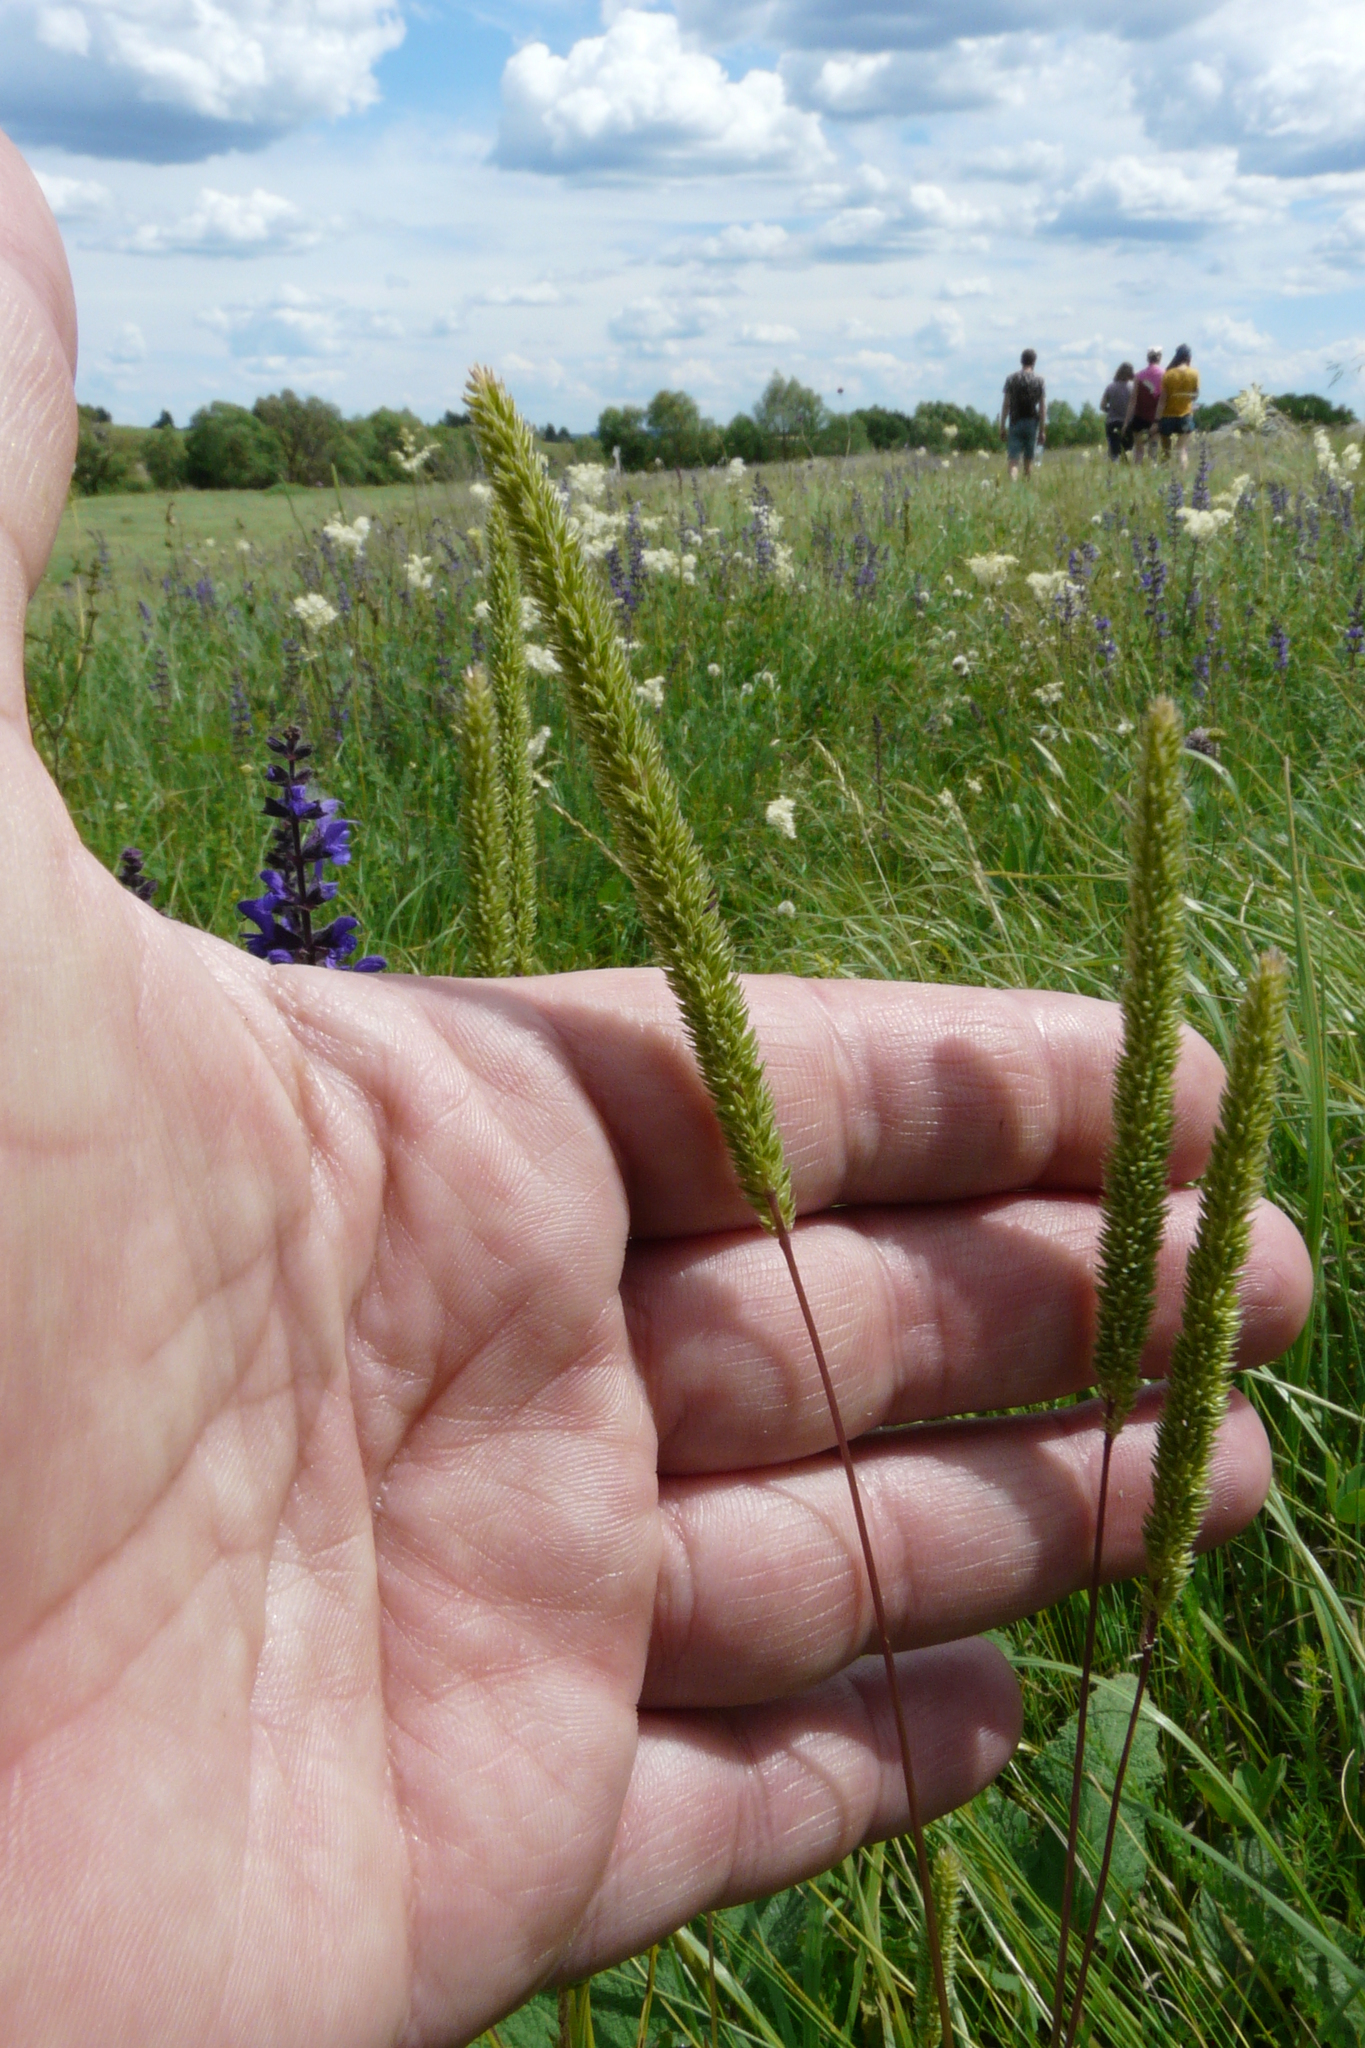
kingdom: Plantae
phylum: Tracheophyta
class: Liliopsida
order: Poales
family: Poaceae
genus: Phleum
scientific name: Phleum phleoides
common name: Purple-stem cat's-tail
